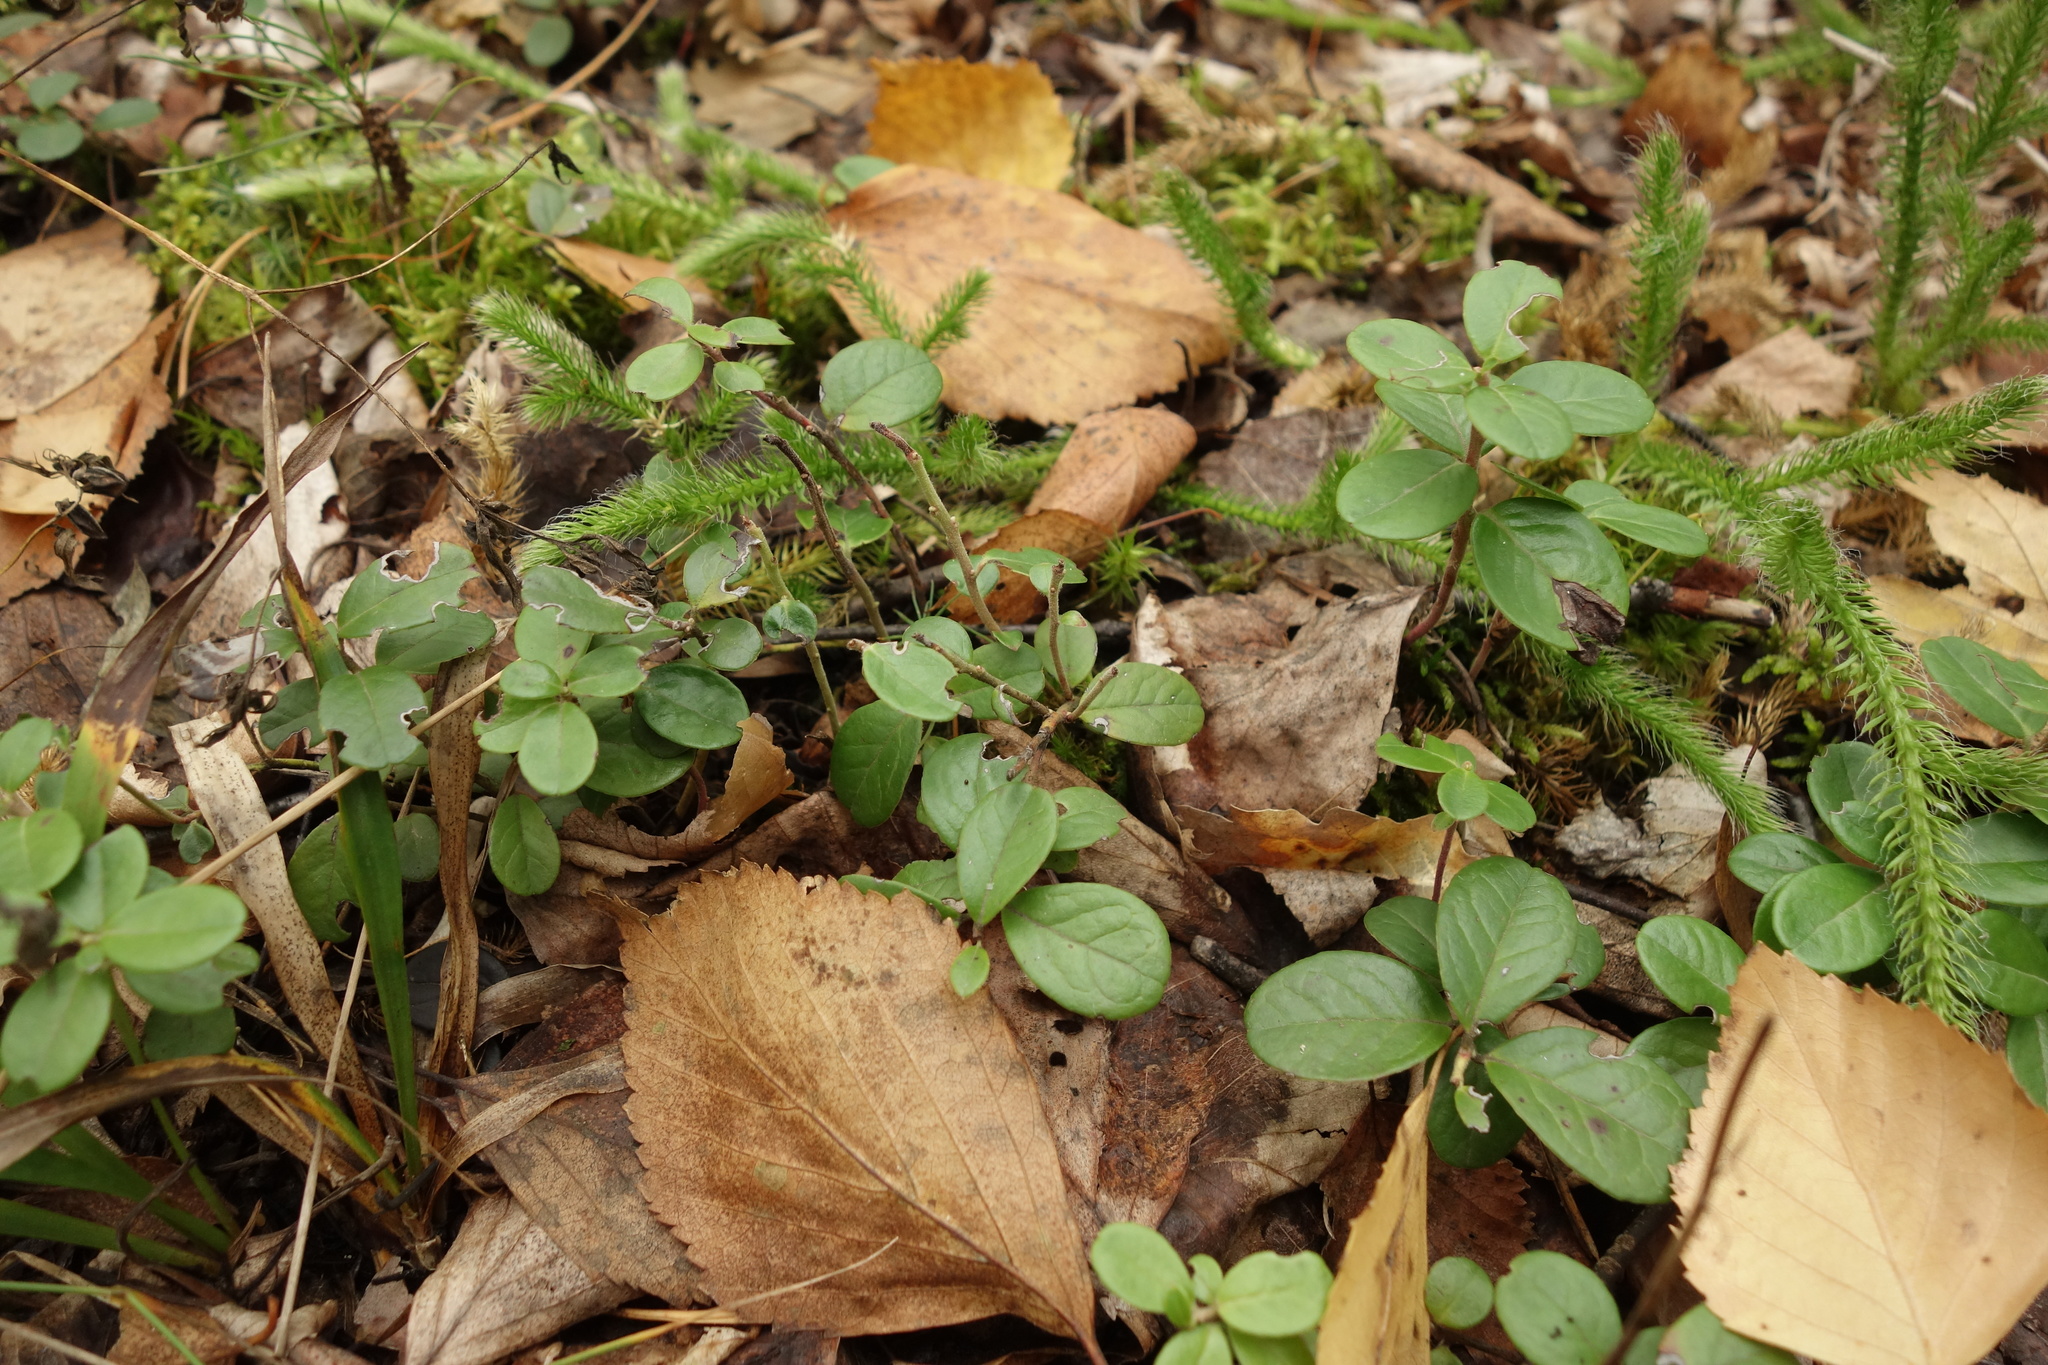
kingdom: Plantae
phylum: Tracheophyta
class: Magnoliopsida
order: Ericales
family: Ericaceae
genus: Vaccinium
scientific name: Vaccinium vitis-idaea
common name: Cowberry
